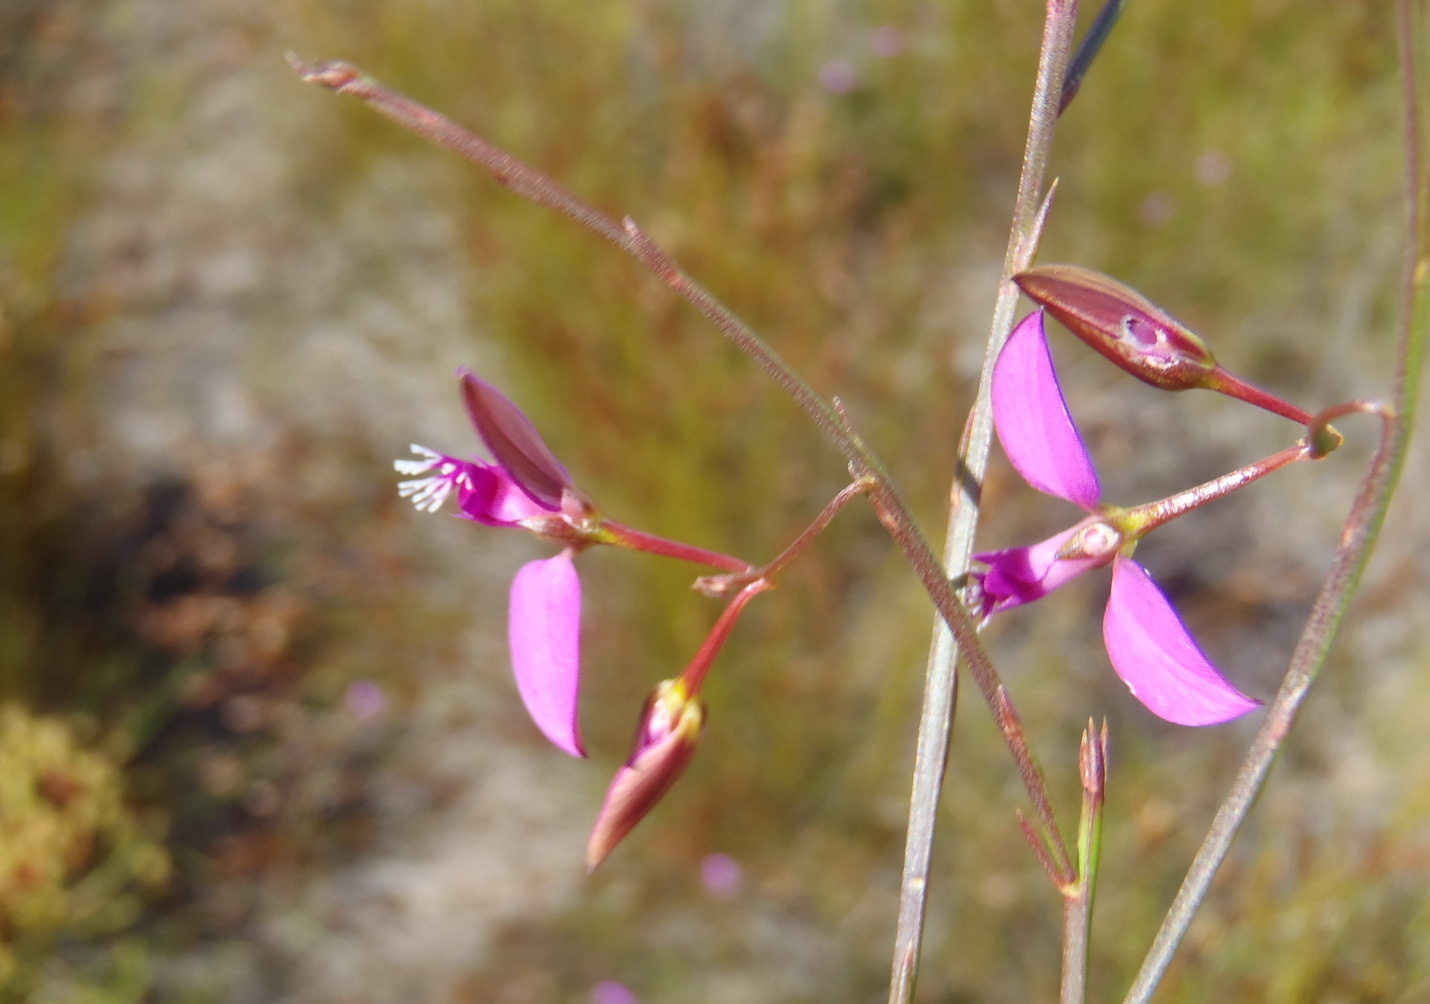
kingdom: Plantae
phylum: Tracheophyta
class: Magnoliopsida
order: Fabales
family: Polygalaceae
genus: Polygala
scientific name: Polygala pappeana
